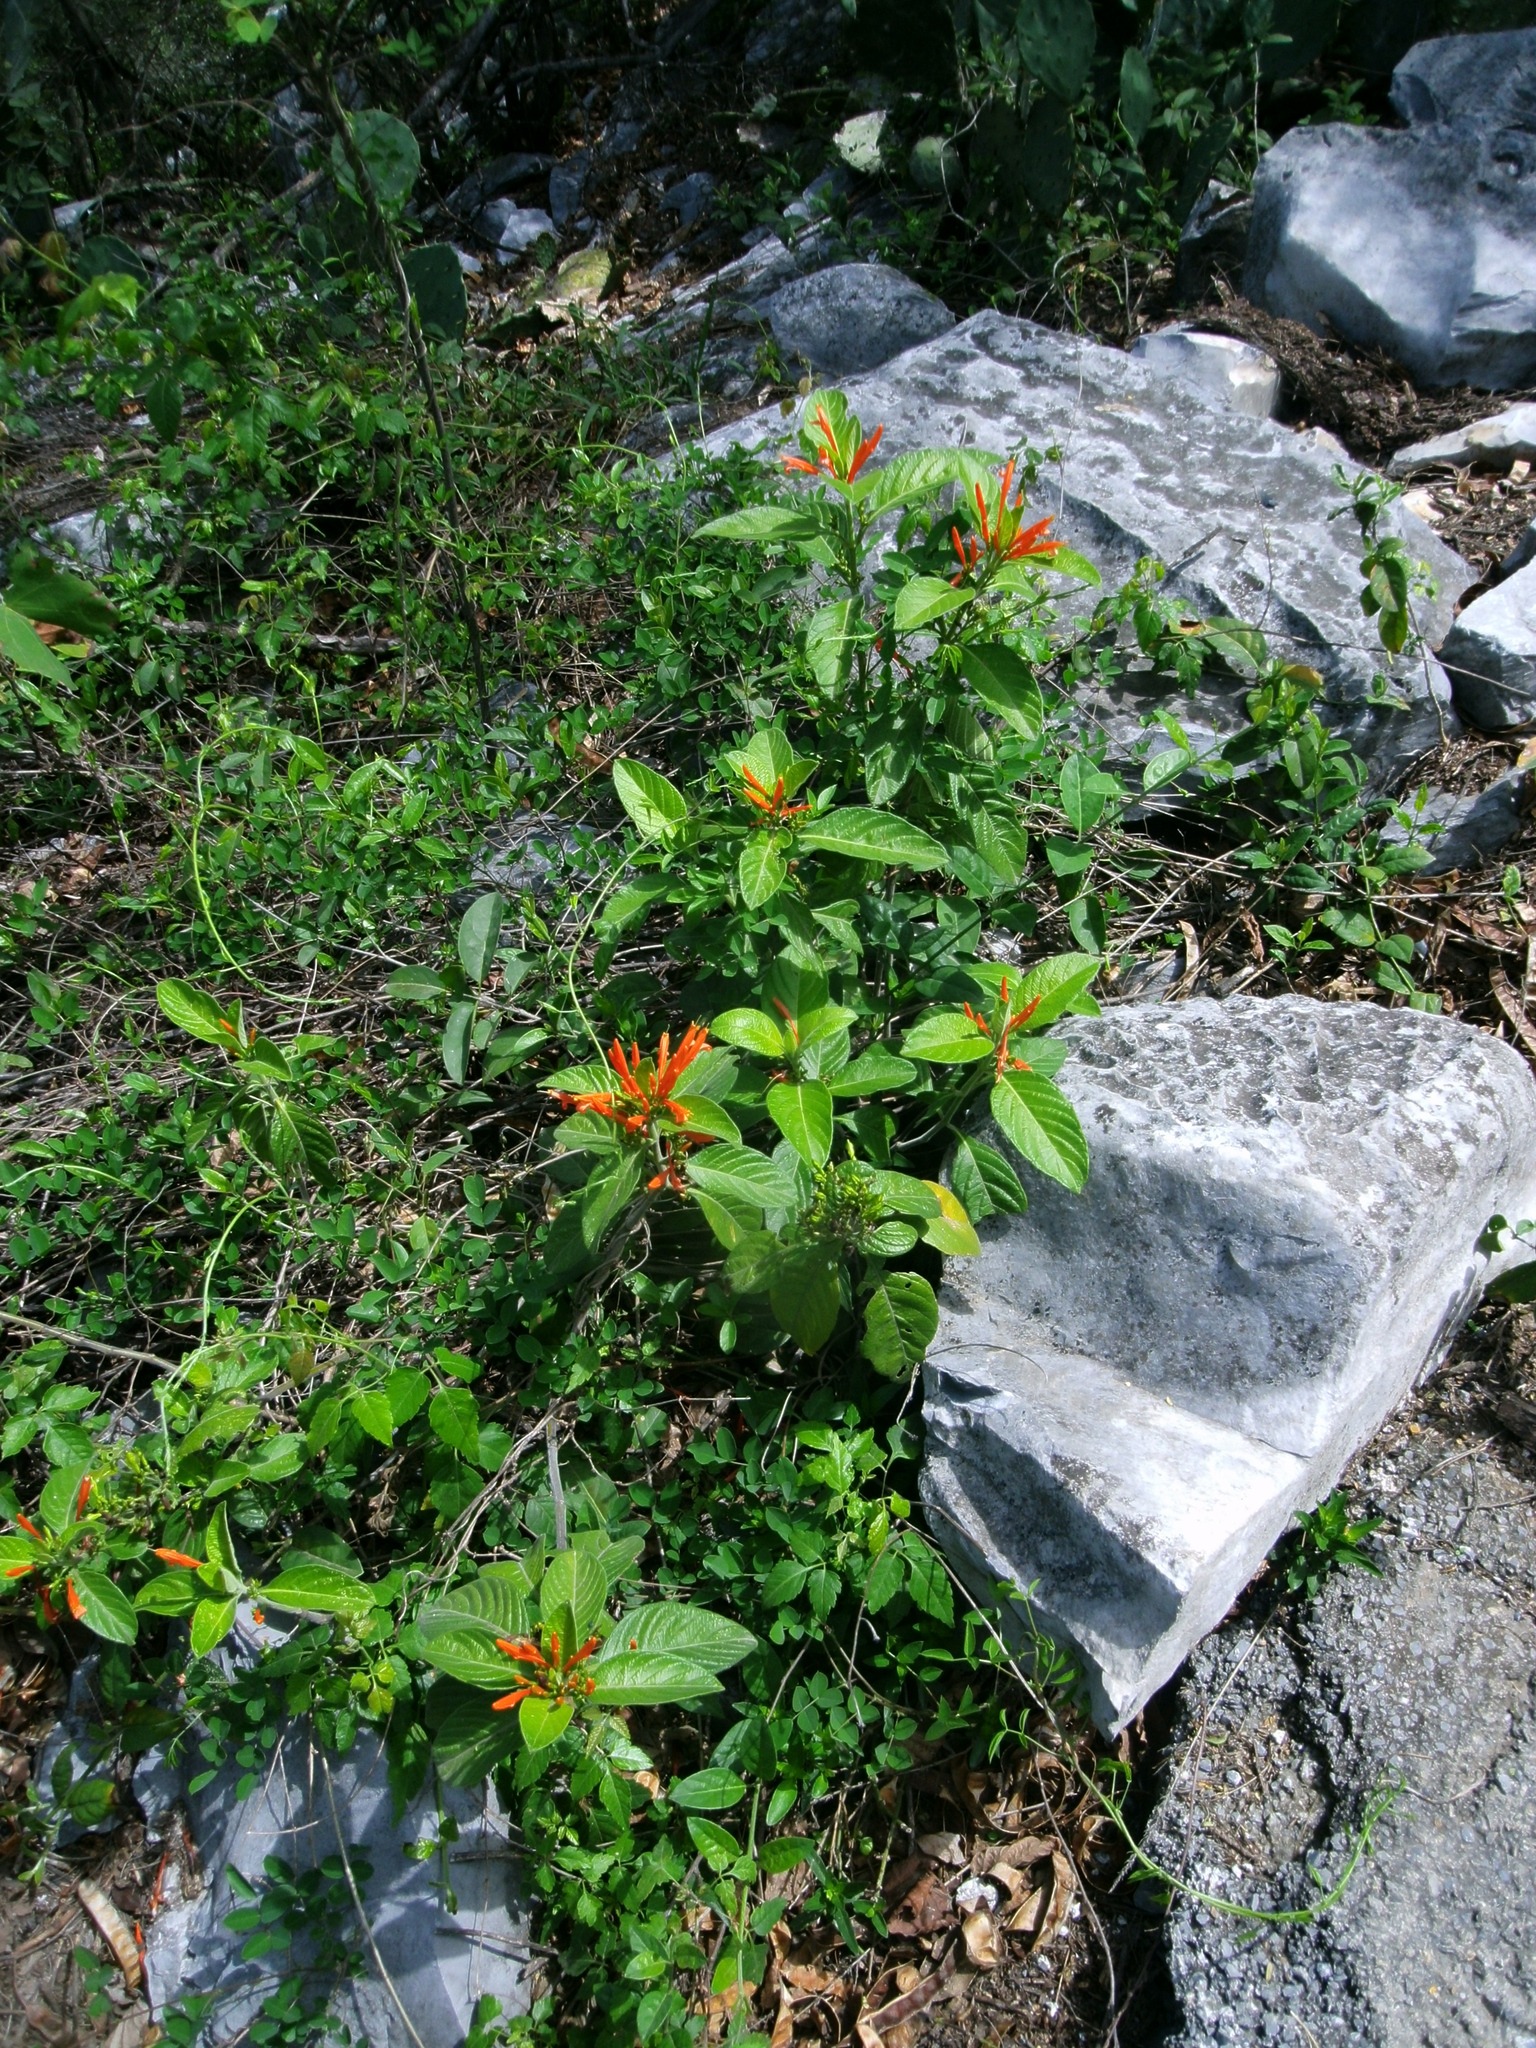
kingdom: Plantae
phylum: Tracheophyta
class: Magnoliopsida
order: Lamiales
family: Acanthaceae
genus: Justicia
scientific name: Justicia spicigera
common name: Mohintli
